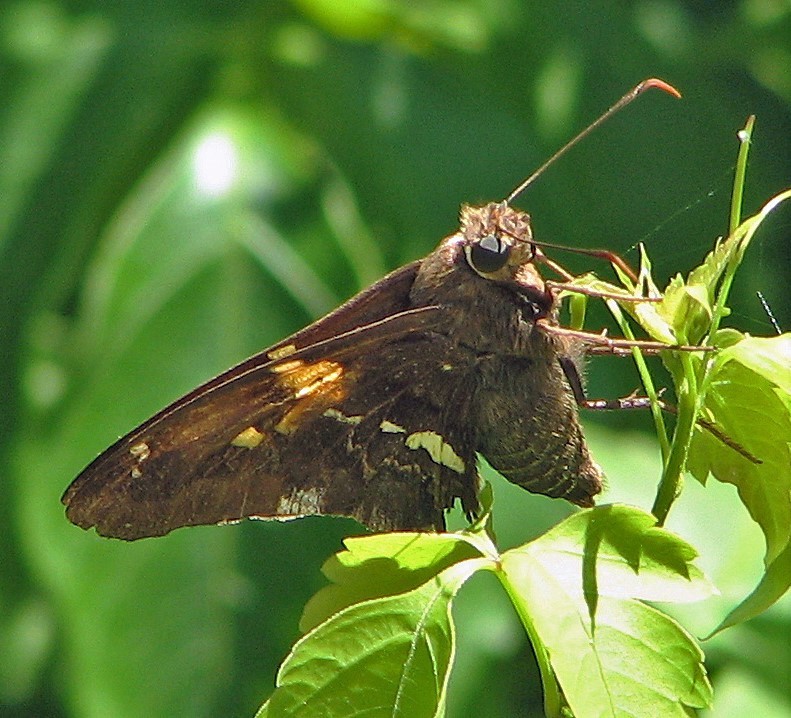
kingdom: Animalia
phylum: Arthropoda
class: Insecta
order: Lepidoptera
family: Hesperiidae
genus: Epargyreus
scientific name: Epargyreus tmolis
